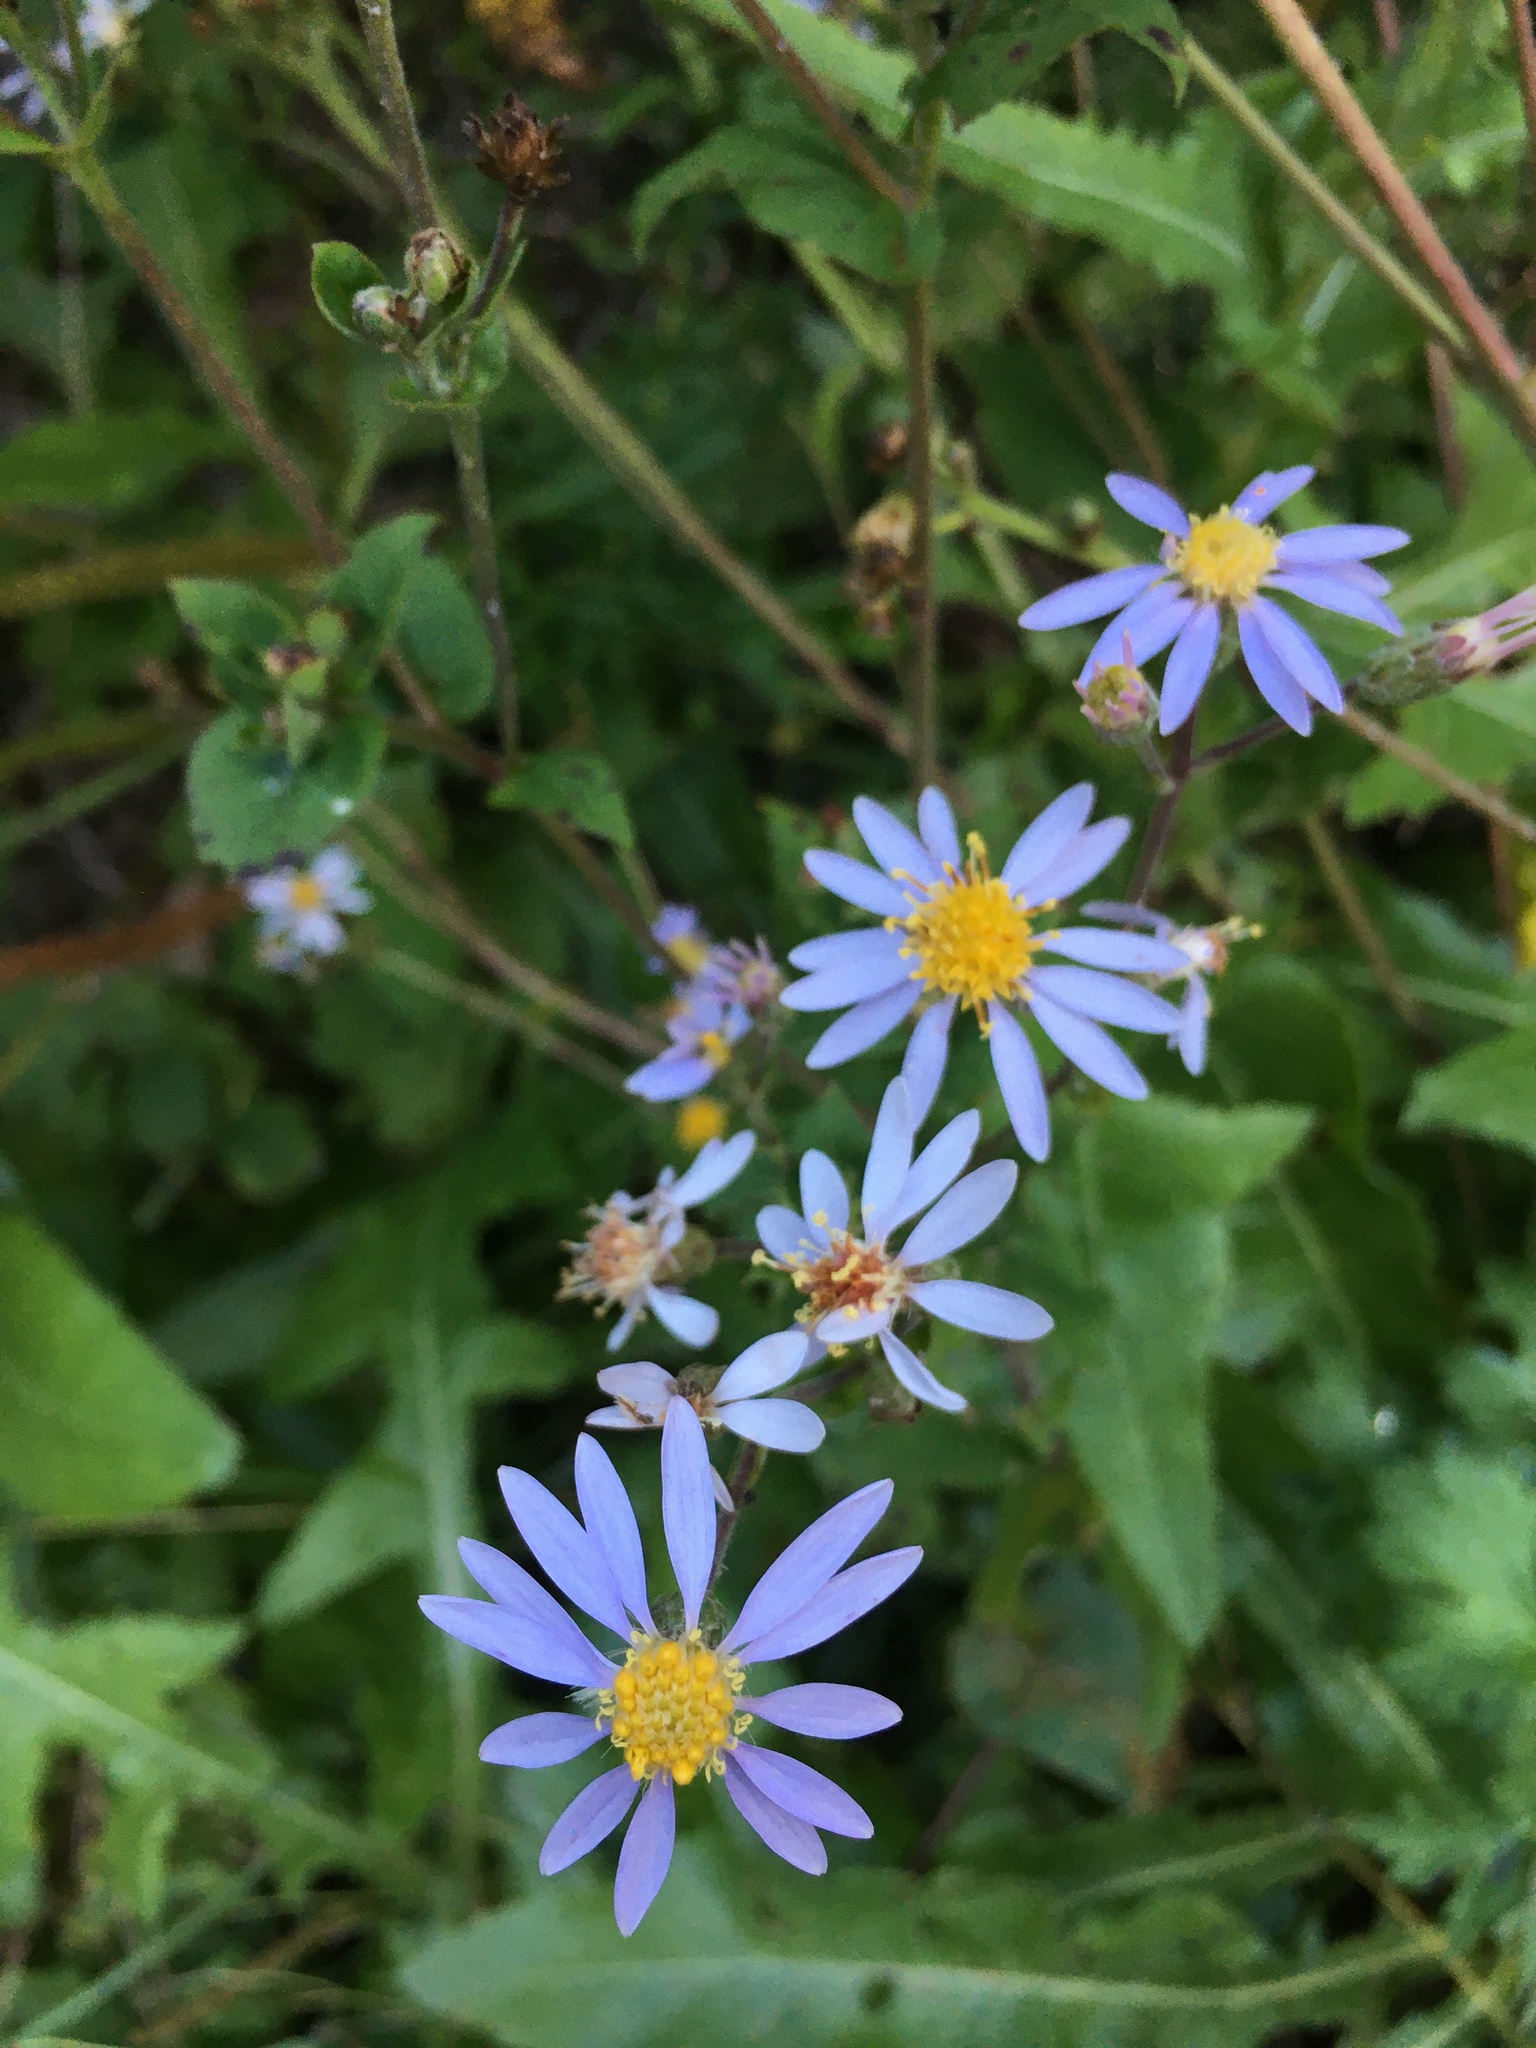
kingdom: Plantae
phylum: Tracheophyta
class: Magnoliopsida
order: Asterales
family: Asteraceae
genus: Eurybia
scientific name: Eurybia macrophylla
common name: Big-leaved aster
